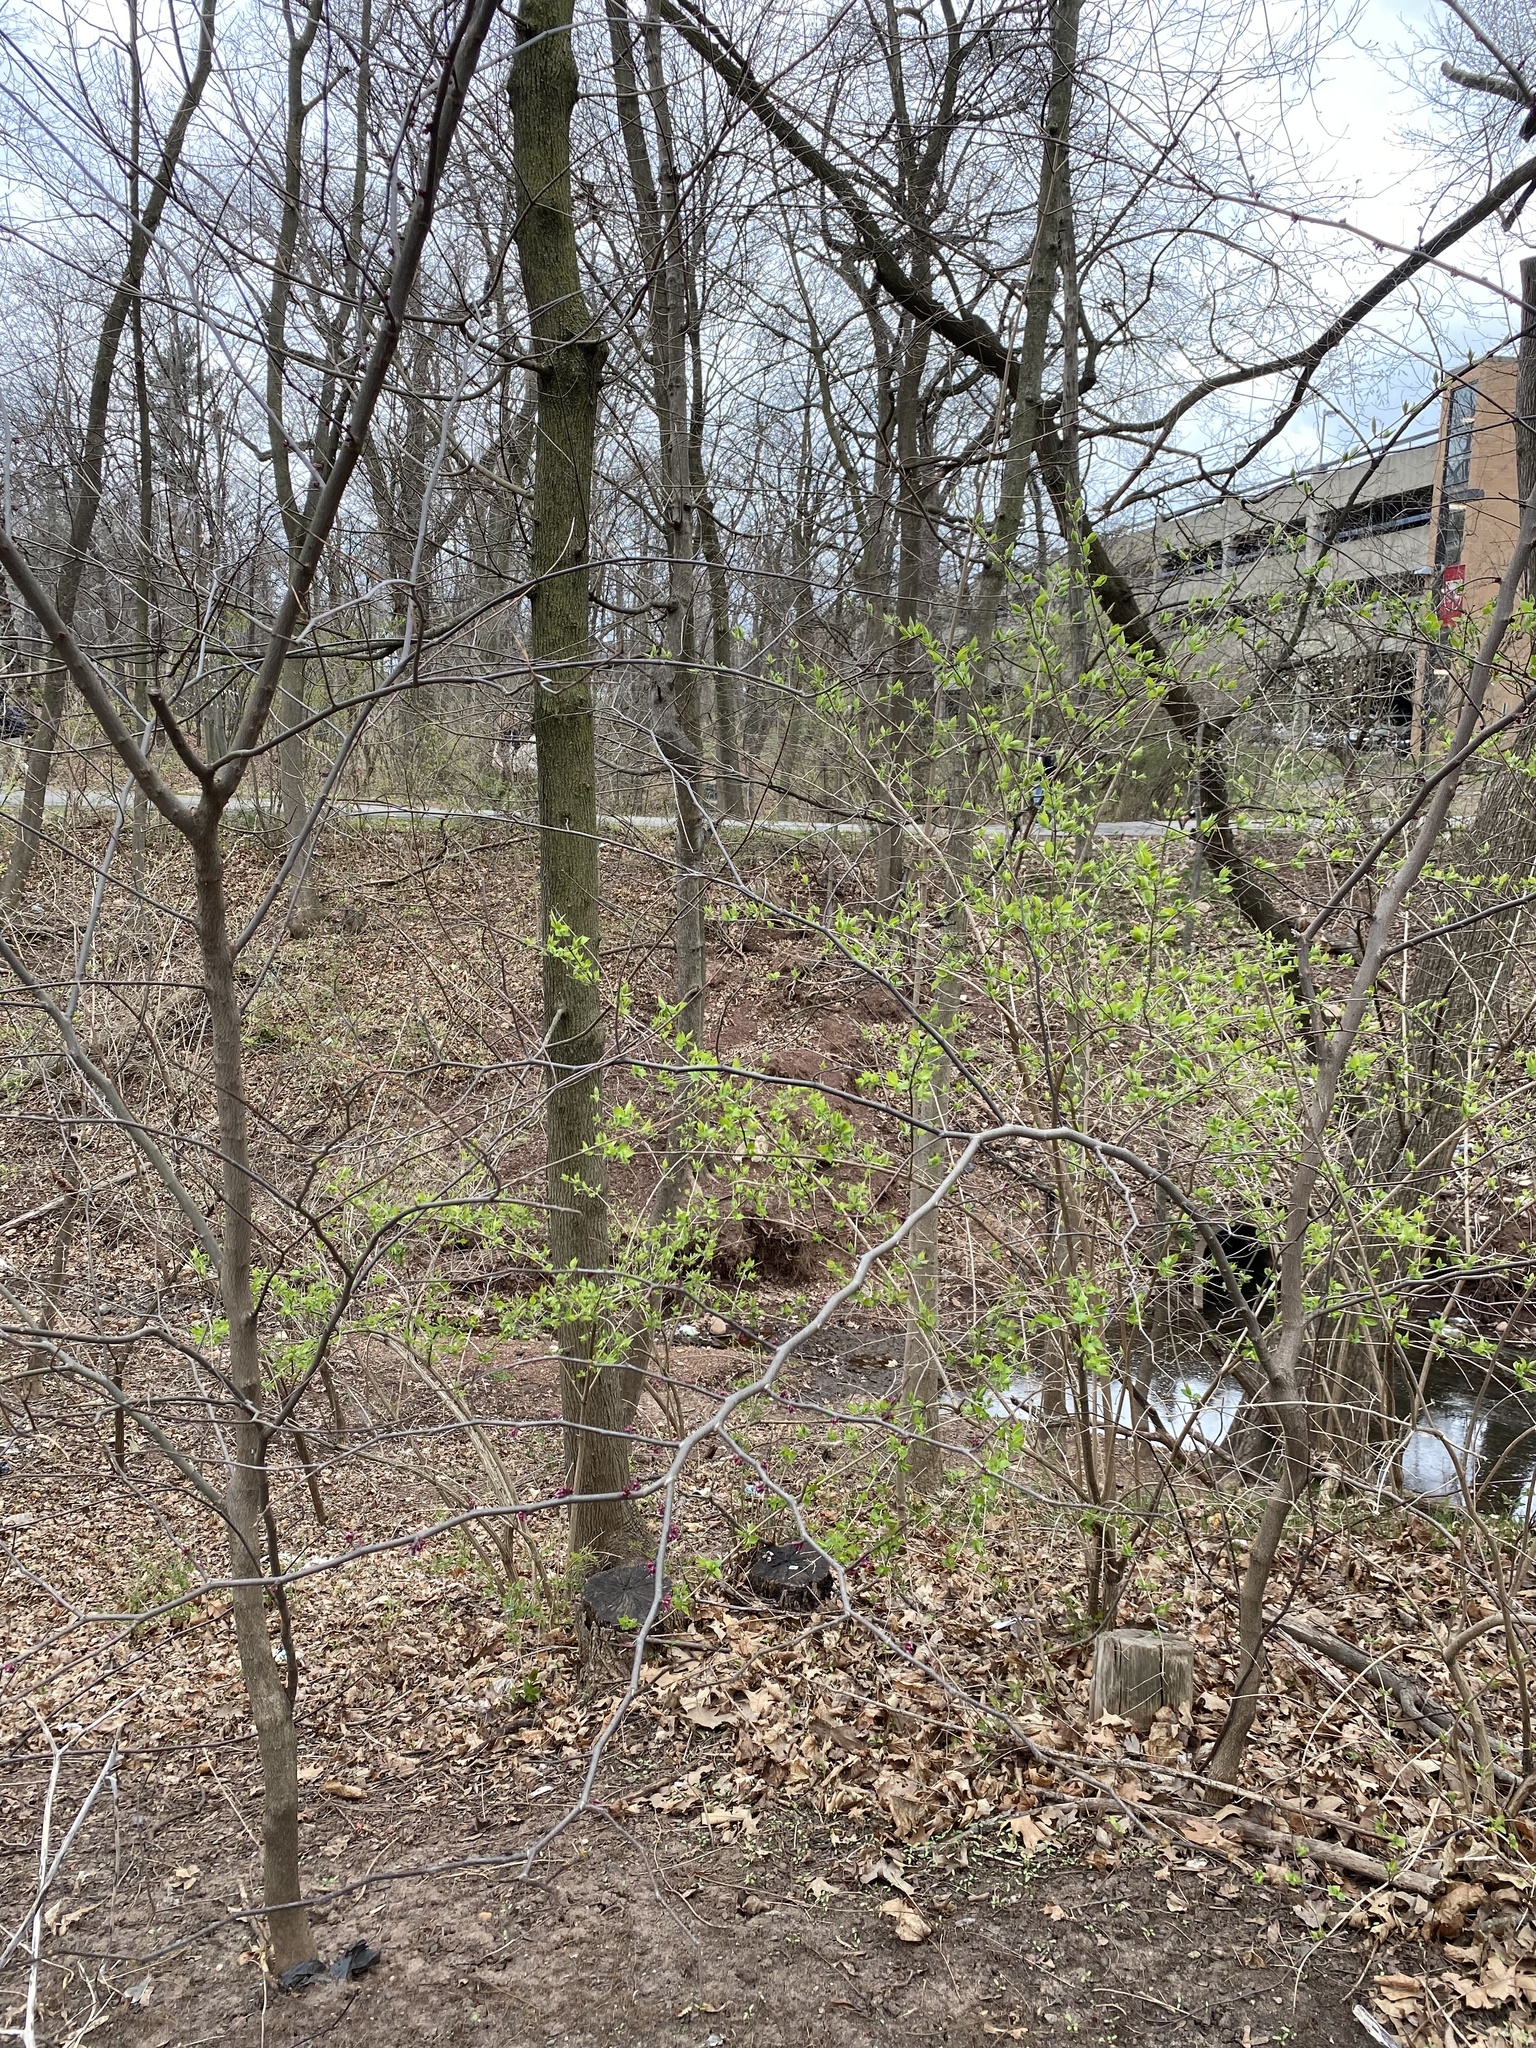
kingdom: Plantae
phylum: Tracheophyta
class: Magnoliopsida
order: Fabales
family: Fabaceae
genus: Cercis
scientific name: Cercis canadensis
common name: Eastern redbud
